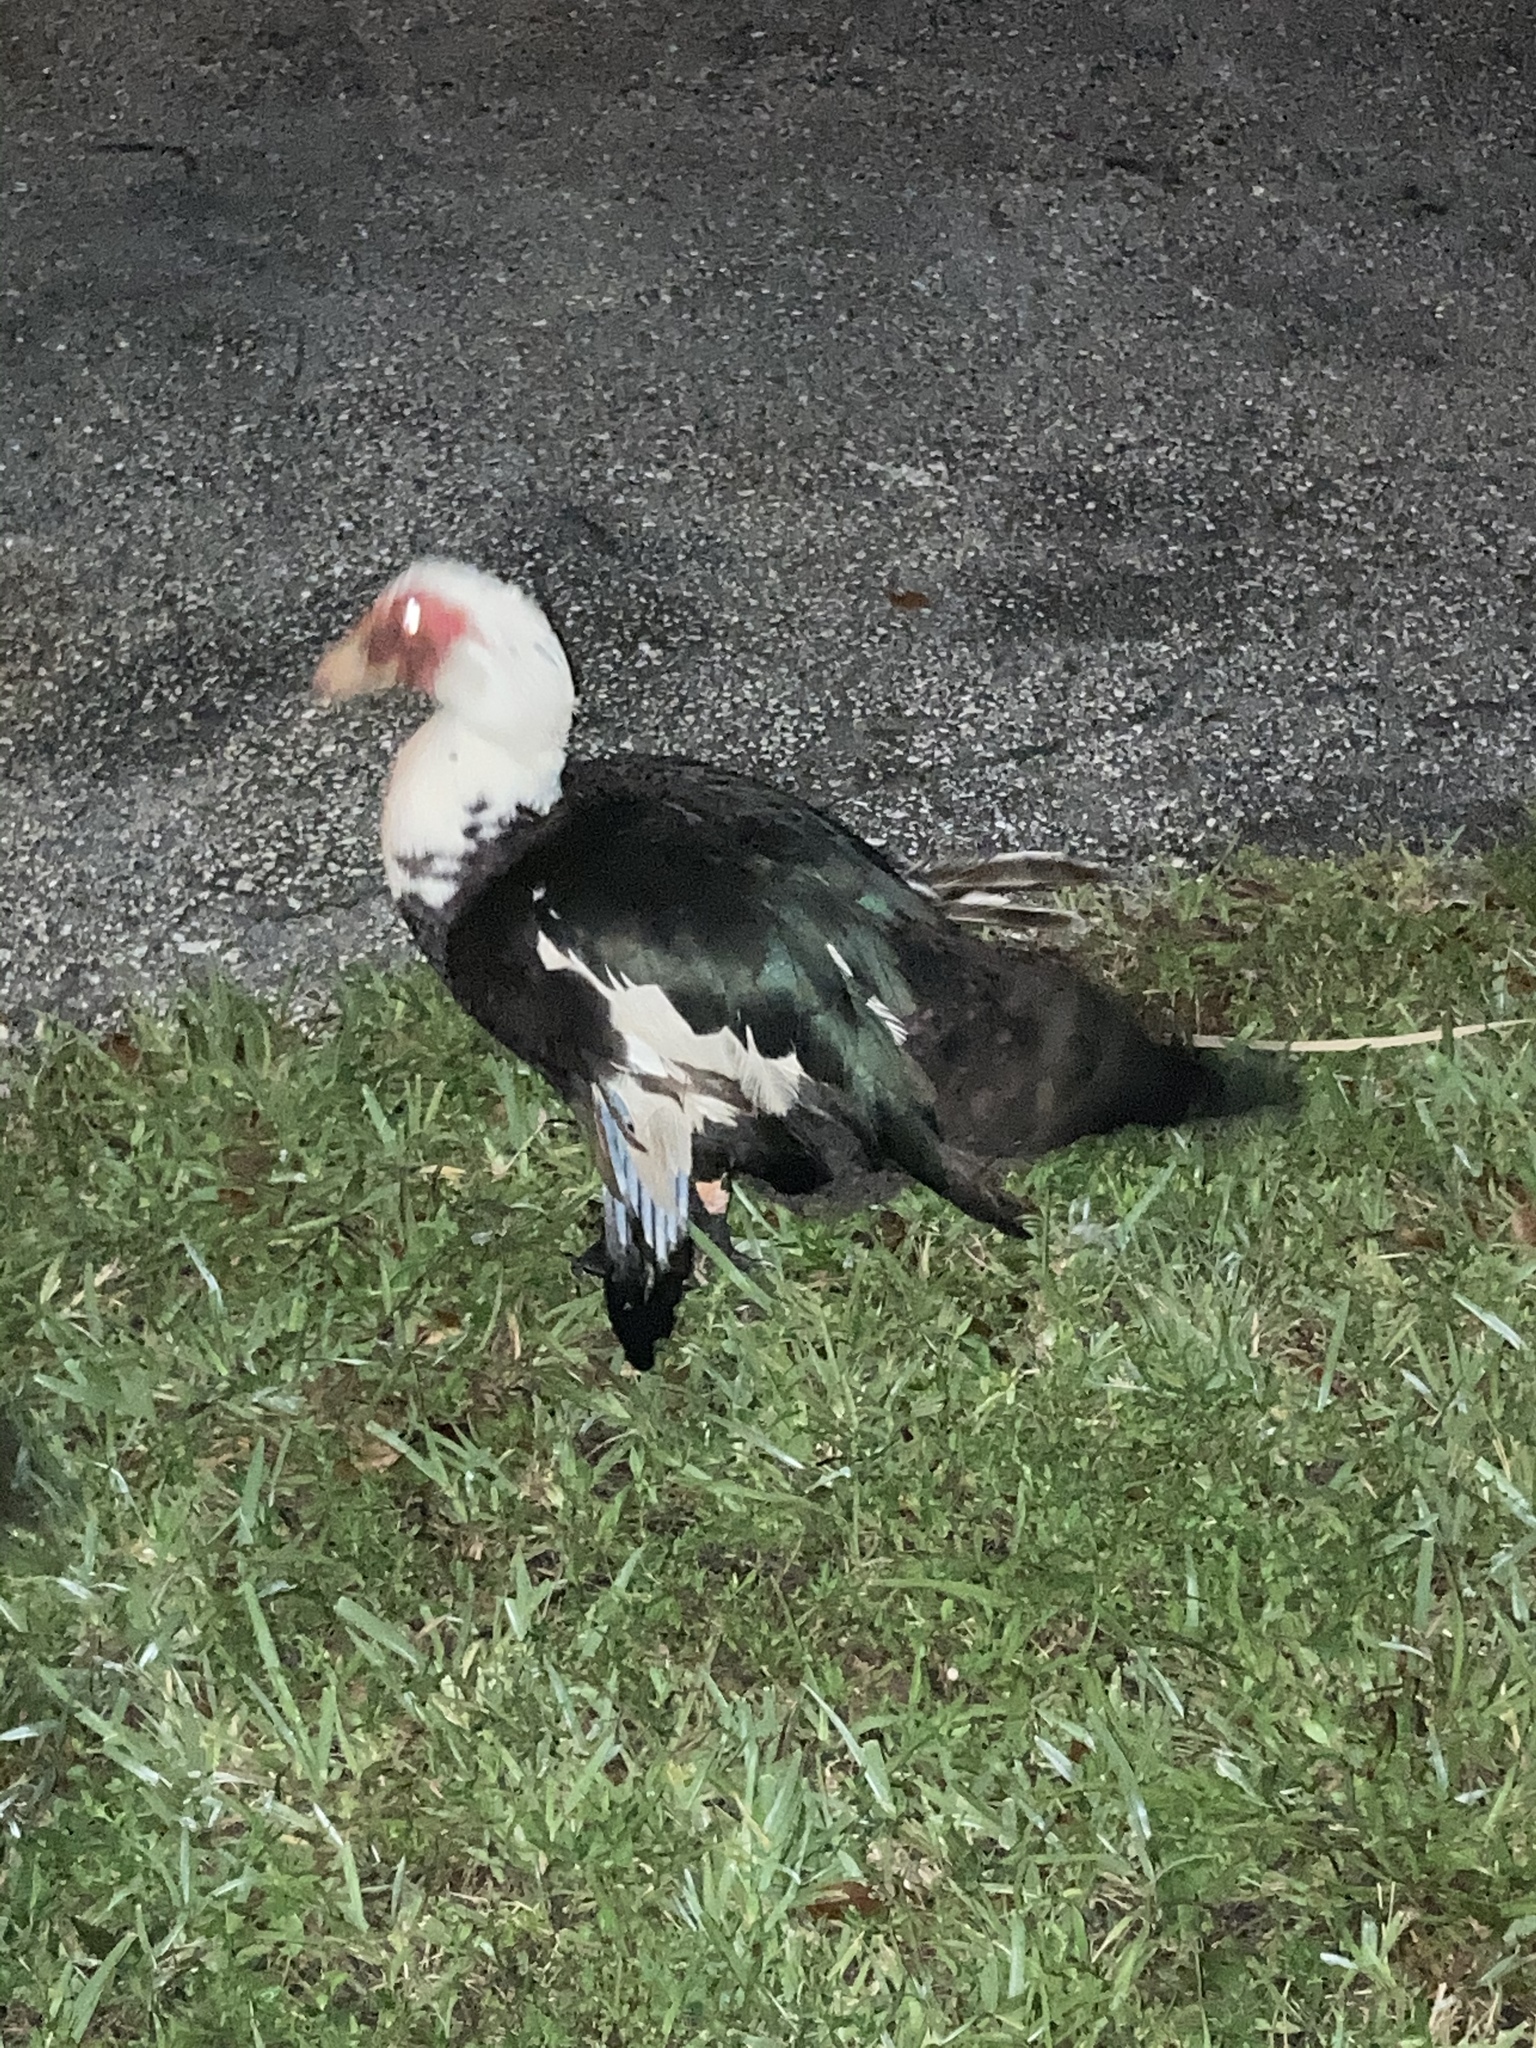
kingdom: Animalia
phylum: Chordata
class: Aves
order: Anseriformes
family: Anatidae
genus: Cairina
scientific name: Cairina moschata
